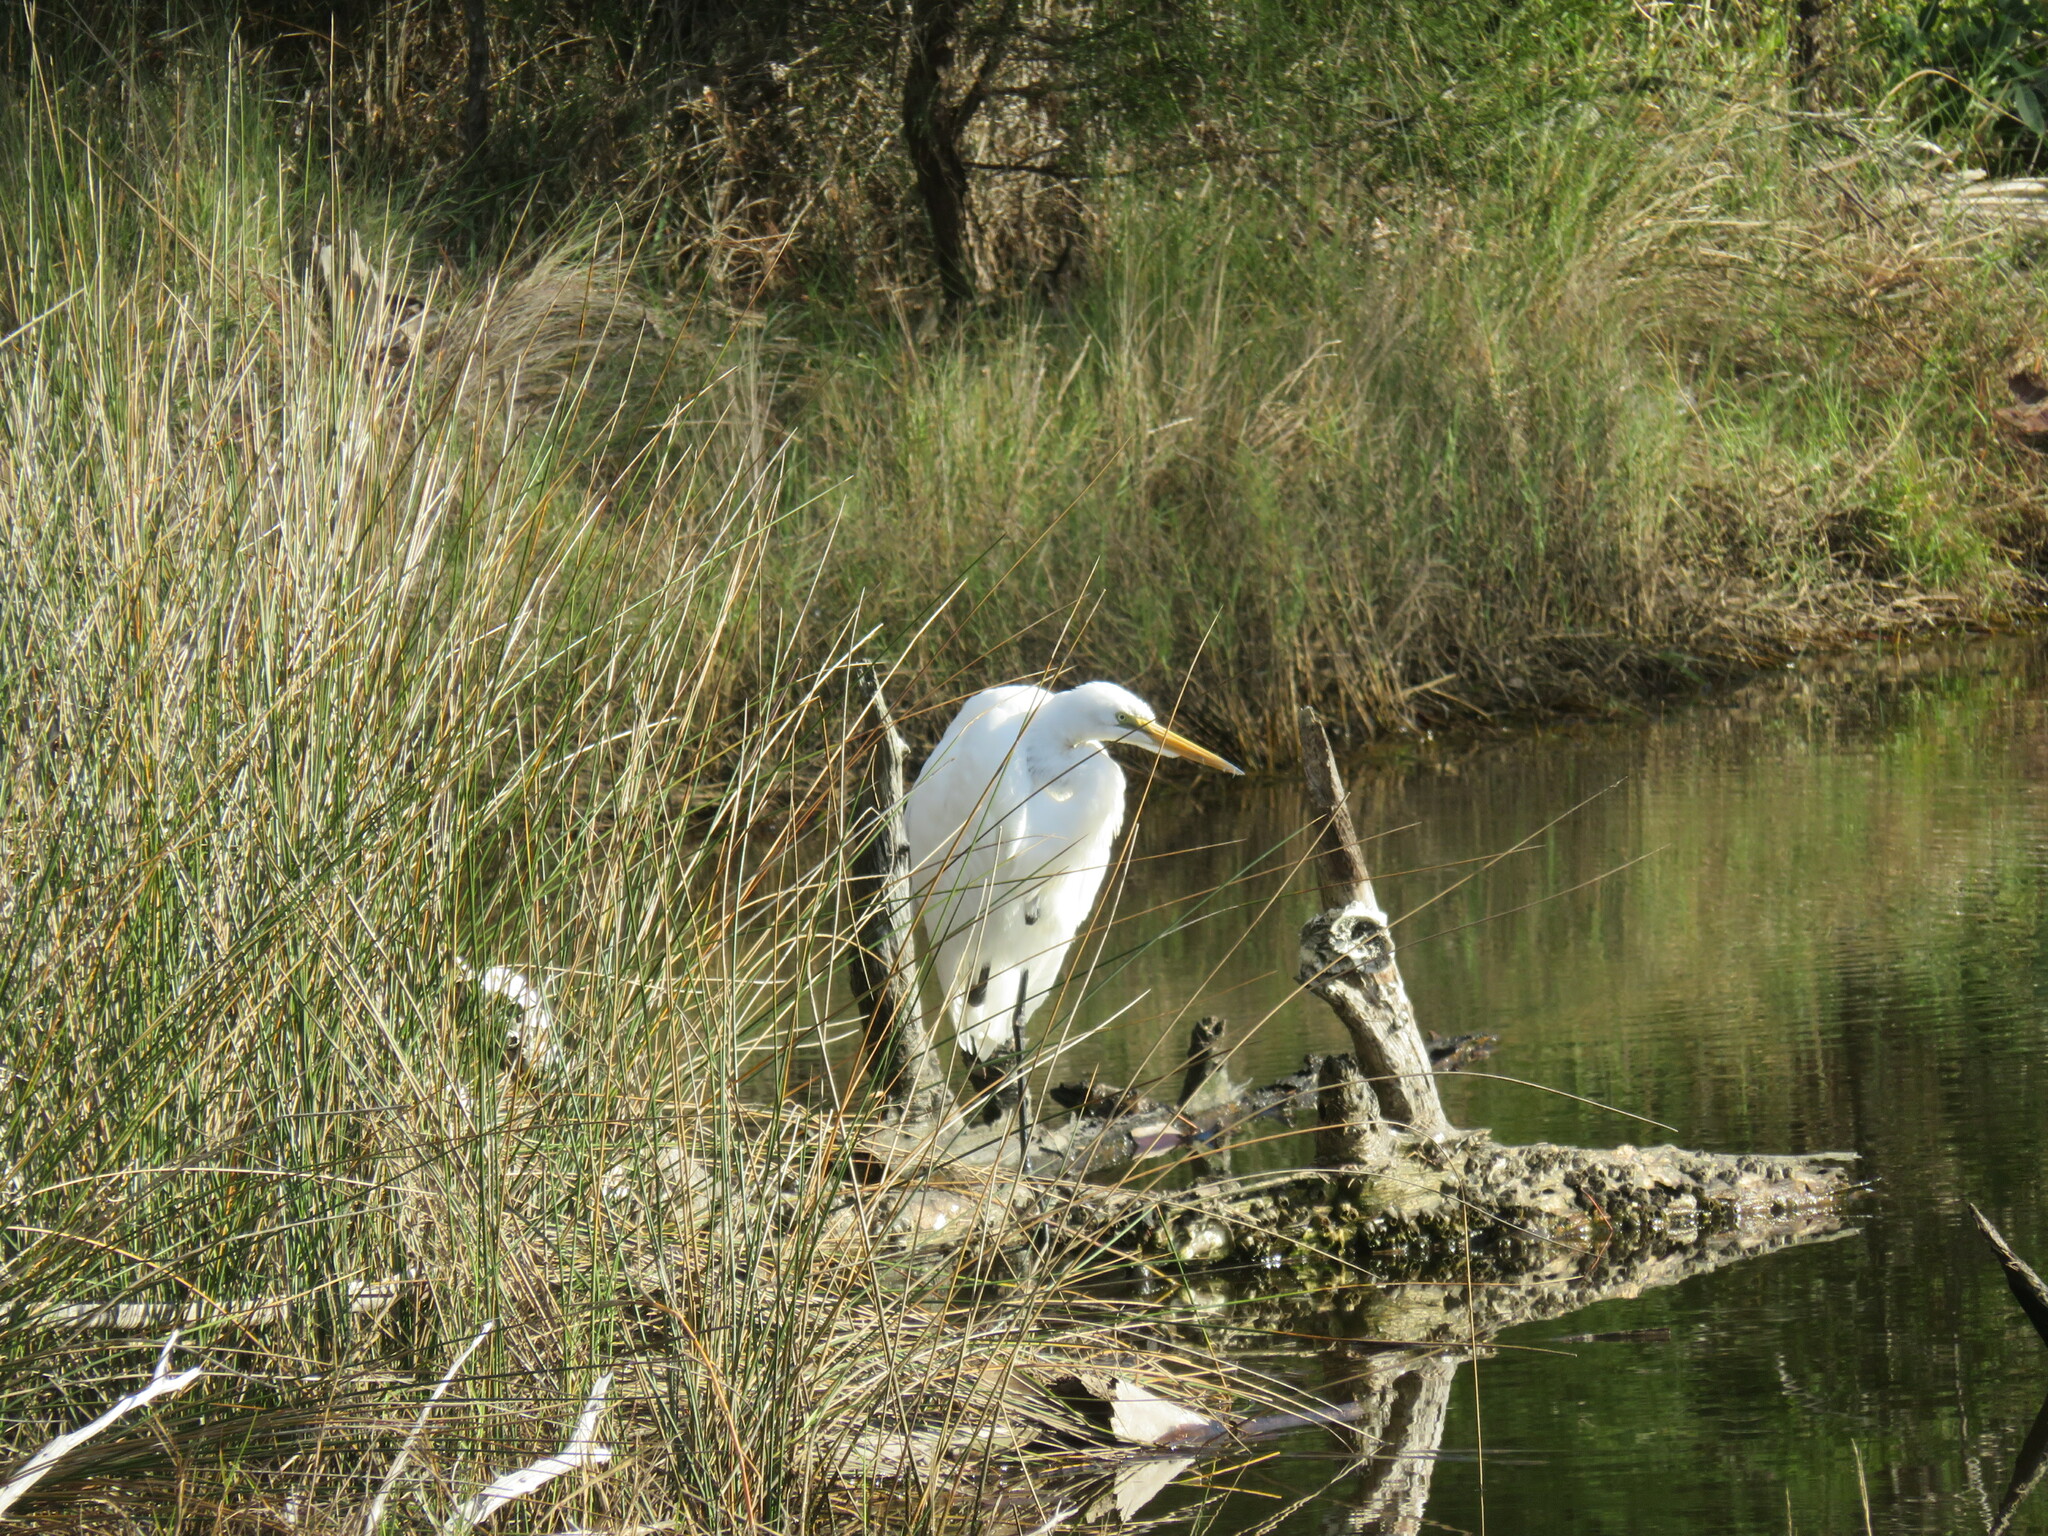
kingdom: Animalia
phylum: Chordata
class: Aves
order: Pelecaniformes
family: Ardeidae
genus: Ardea
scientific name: Ardea alba
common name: Great egret
